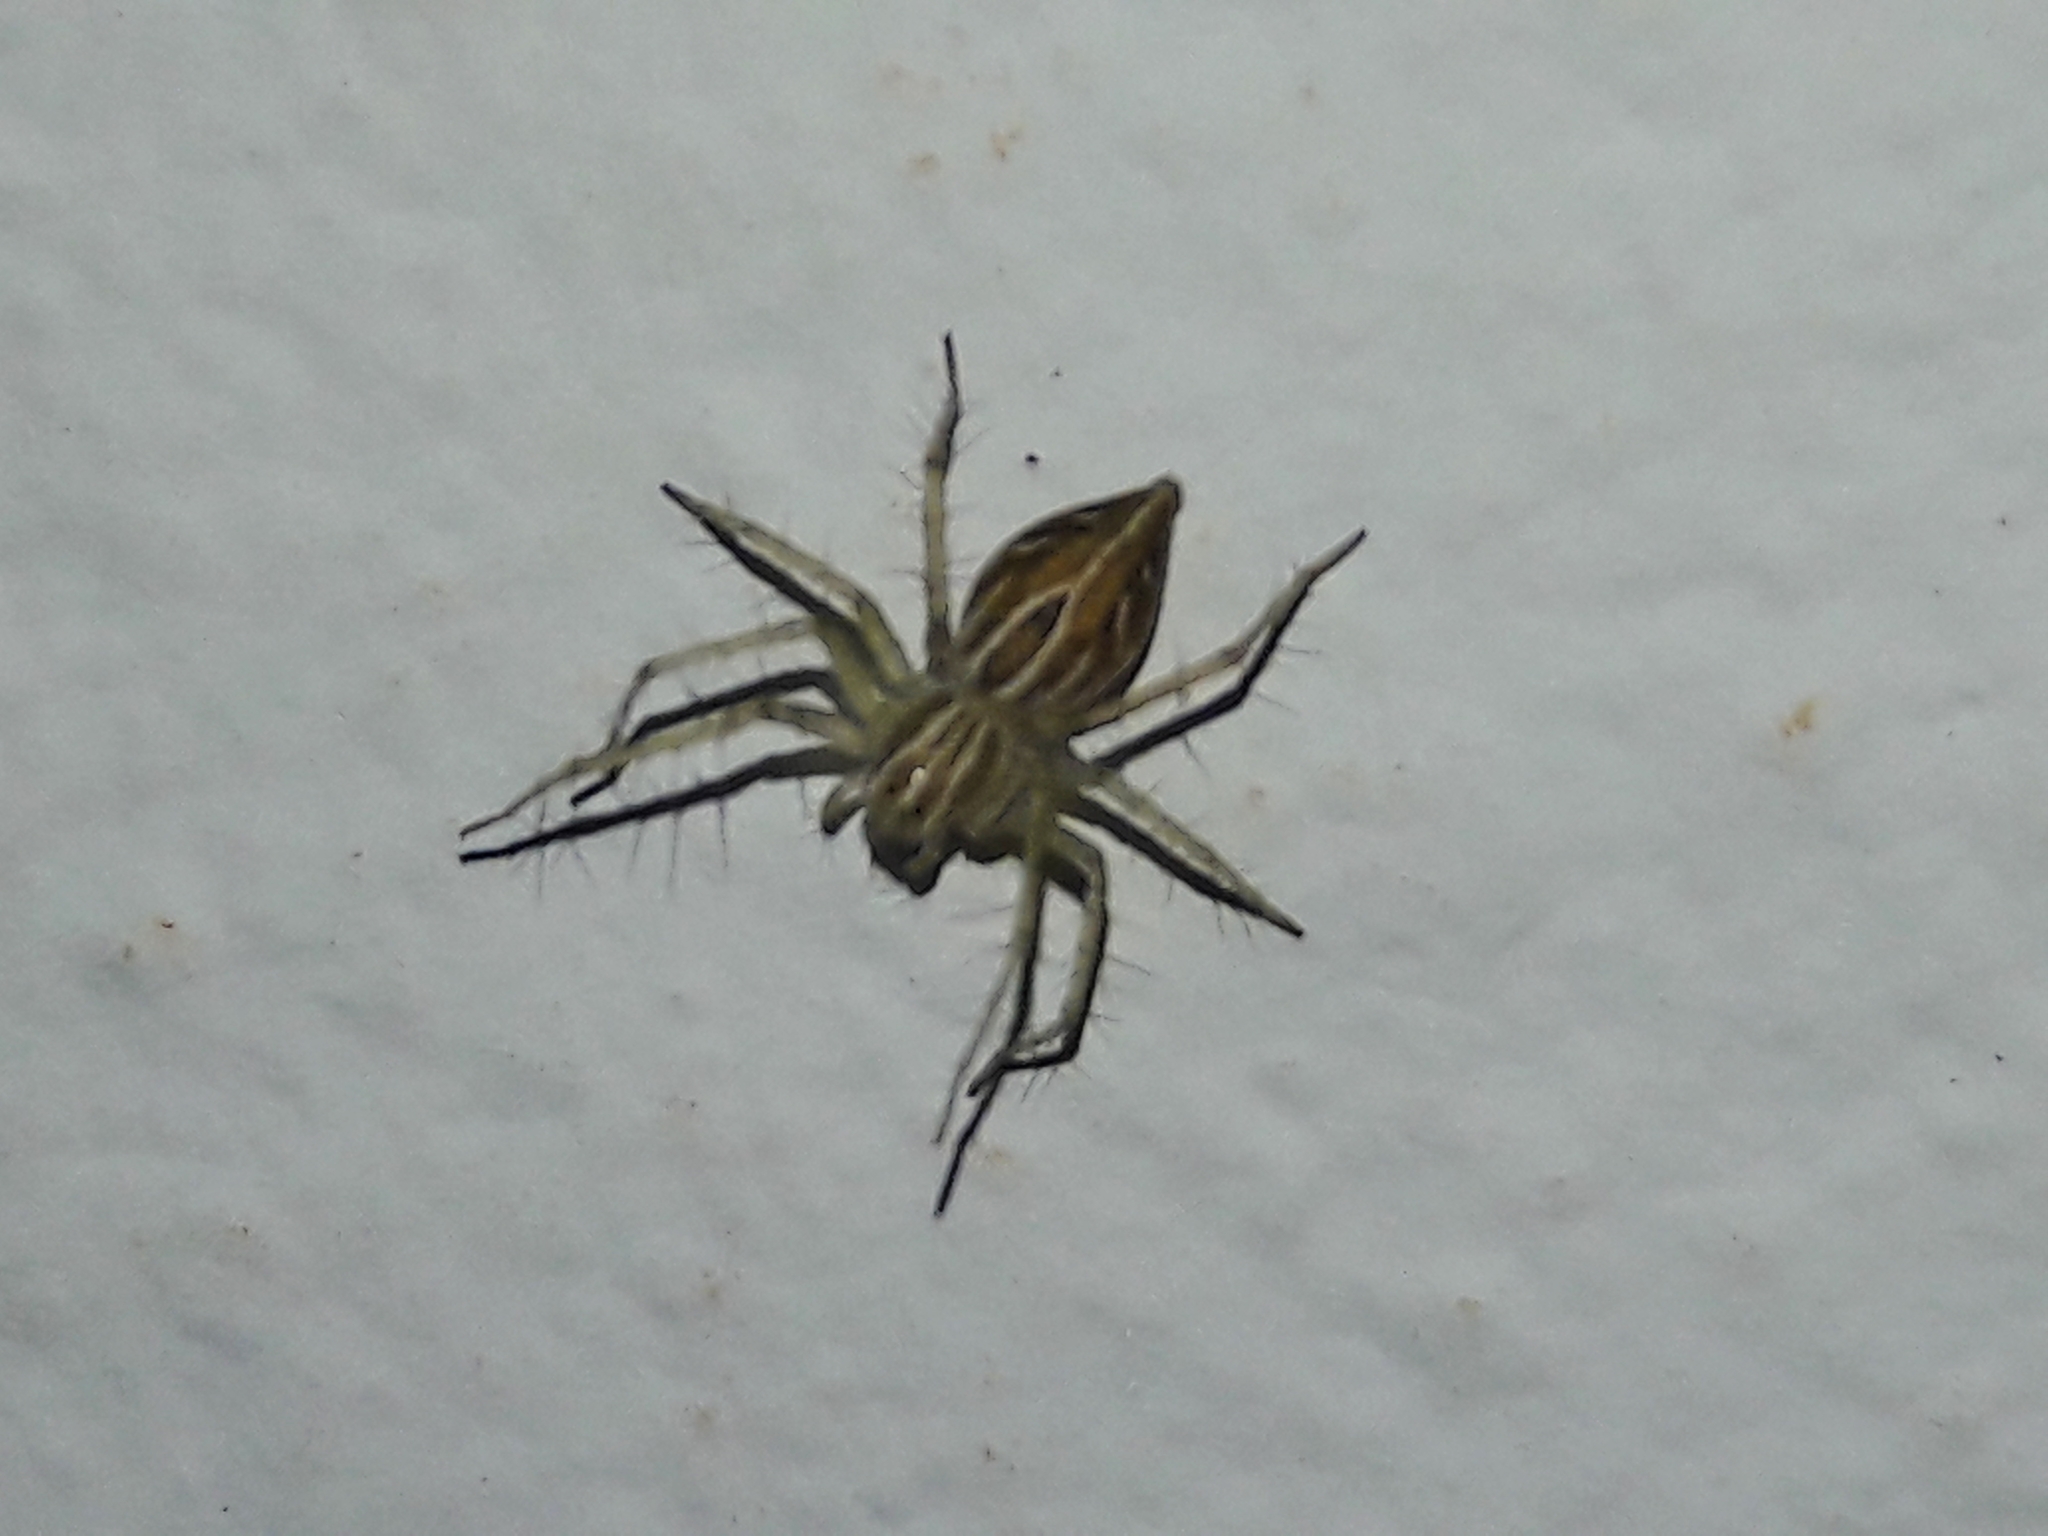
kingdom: Animalia
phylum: Arthropoda
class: Arachnida
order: Araneae
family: Oxyopidae
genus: Oxyopes
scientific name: Oxyopes salticus
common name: Lynx spiders
